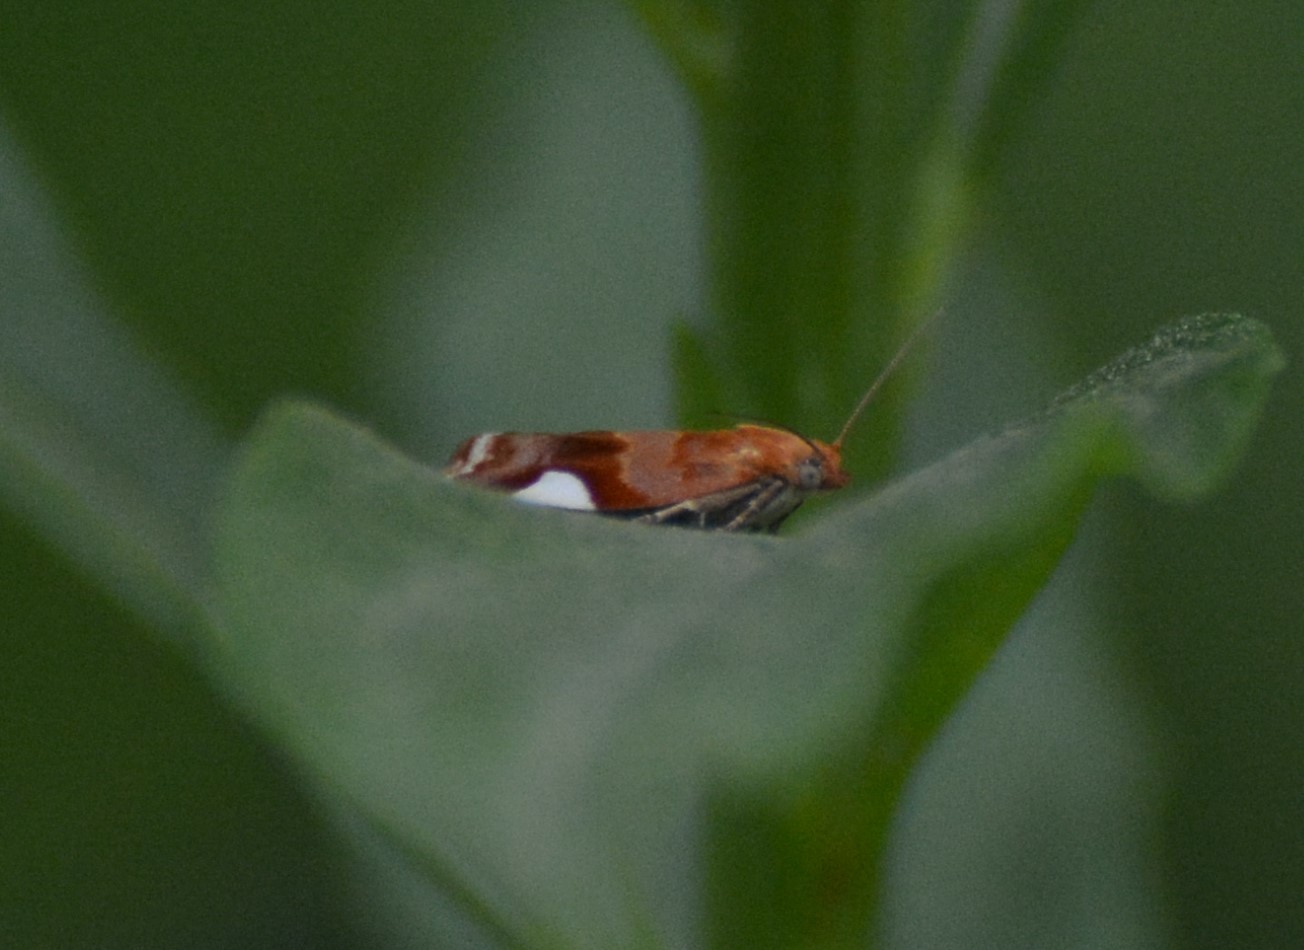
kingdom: Animalia
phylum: Arthropoda
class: Insecta
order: Lepidoptera
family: Tortricidae
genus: Clepsis
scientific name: Clepsis persicana
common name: White triangle tortrix
